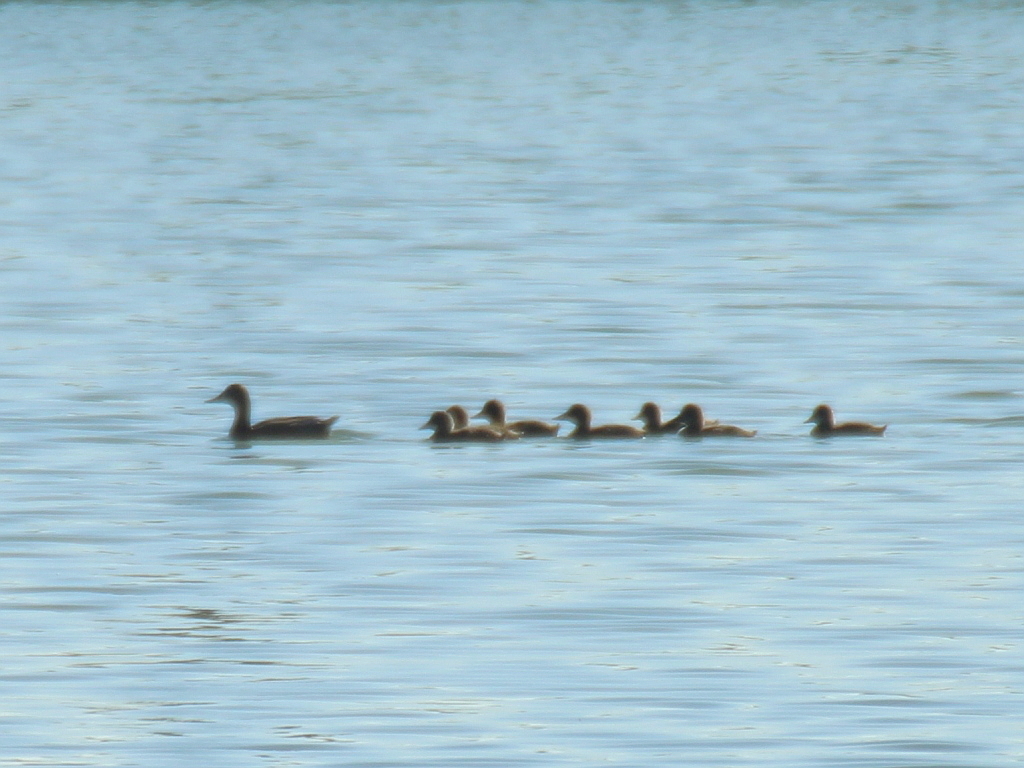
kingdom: Animalia
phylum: Chordata
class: Aves
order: Anseriformes
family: Anatidae
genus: Aythya
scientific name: Aythya ferina
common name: Common pochard
